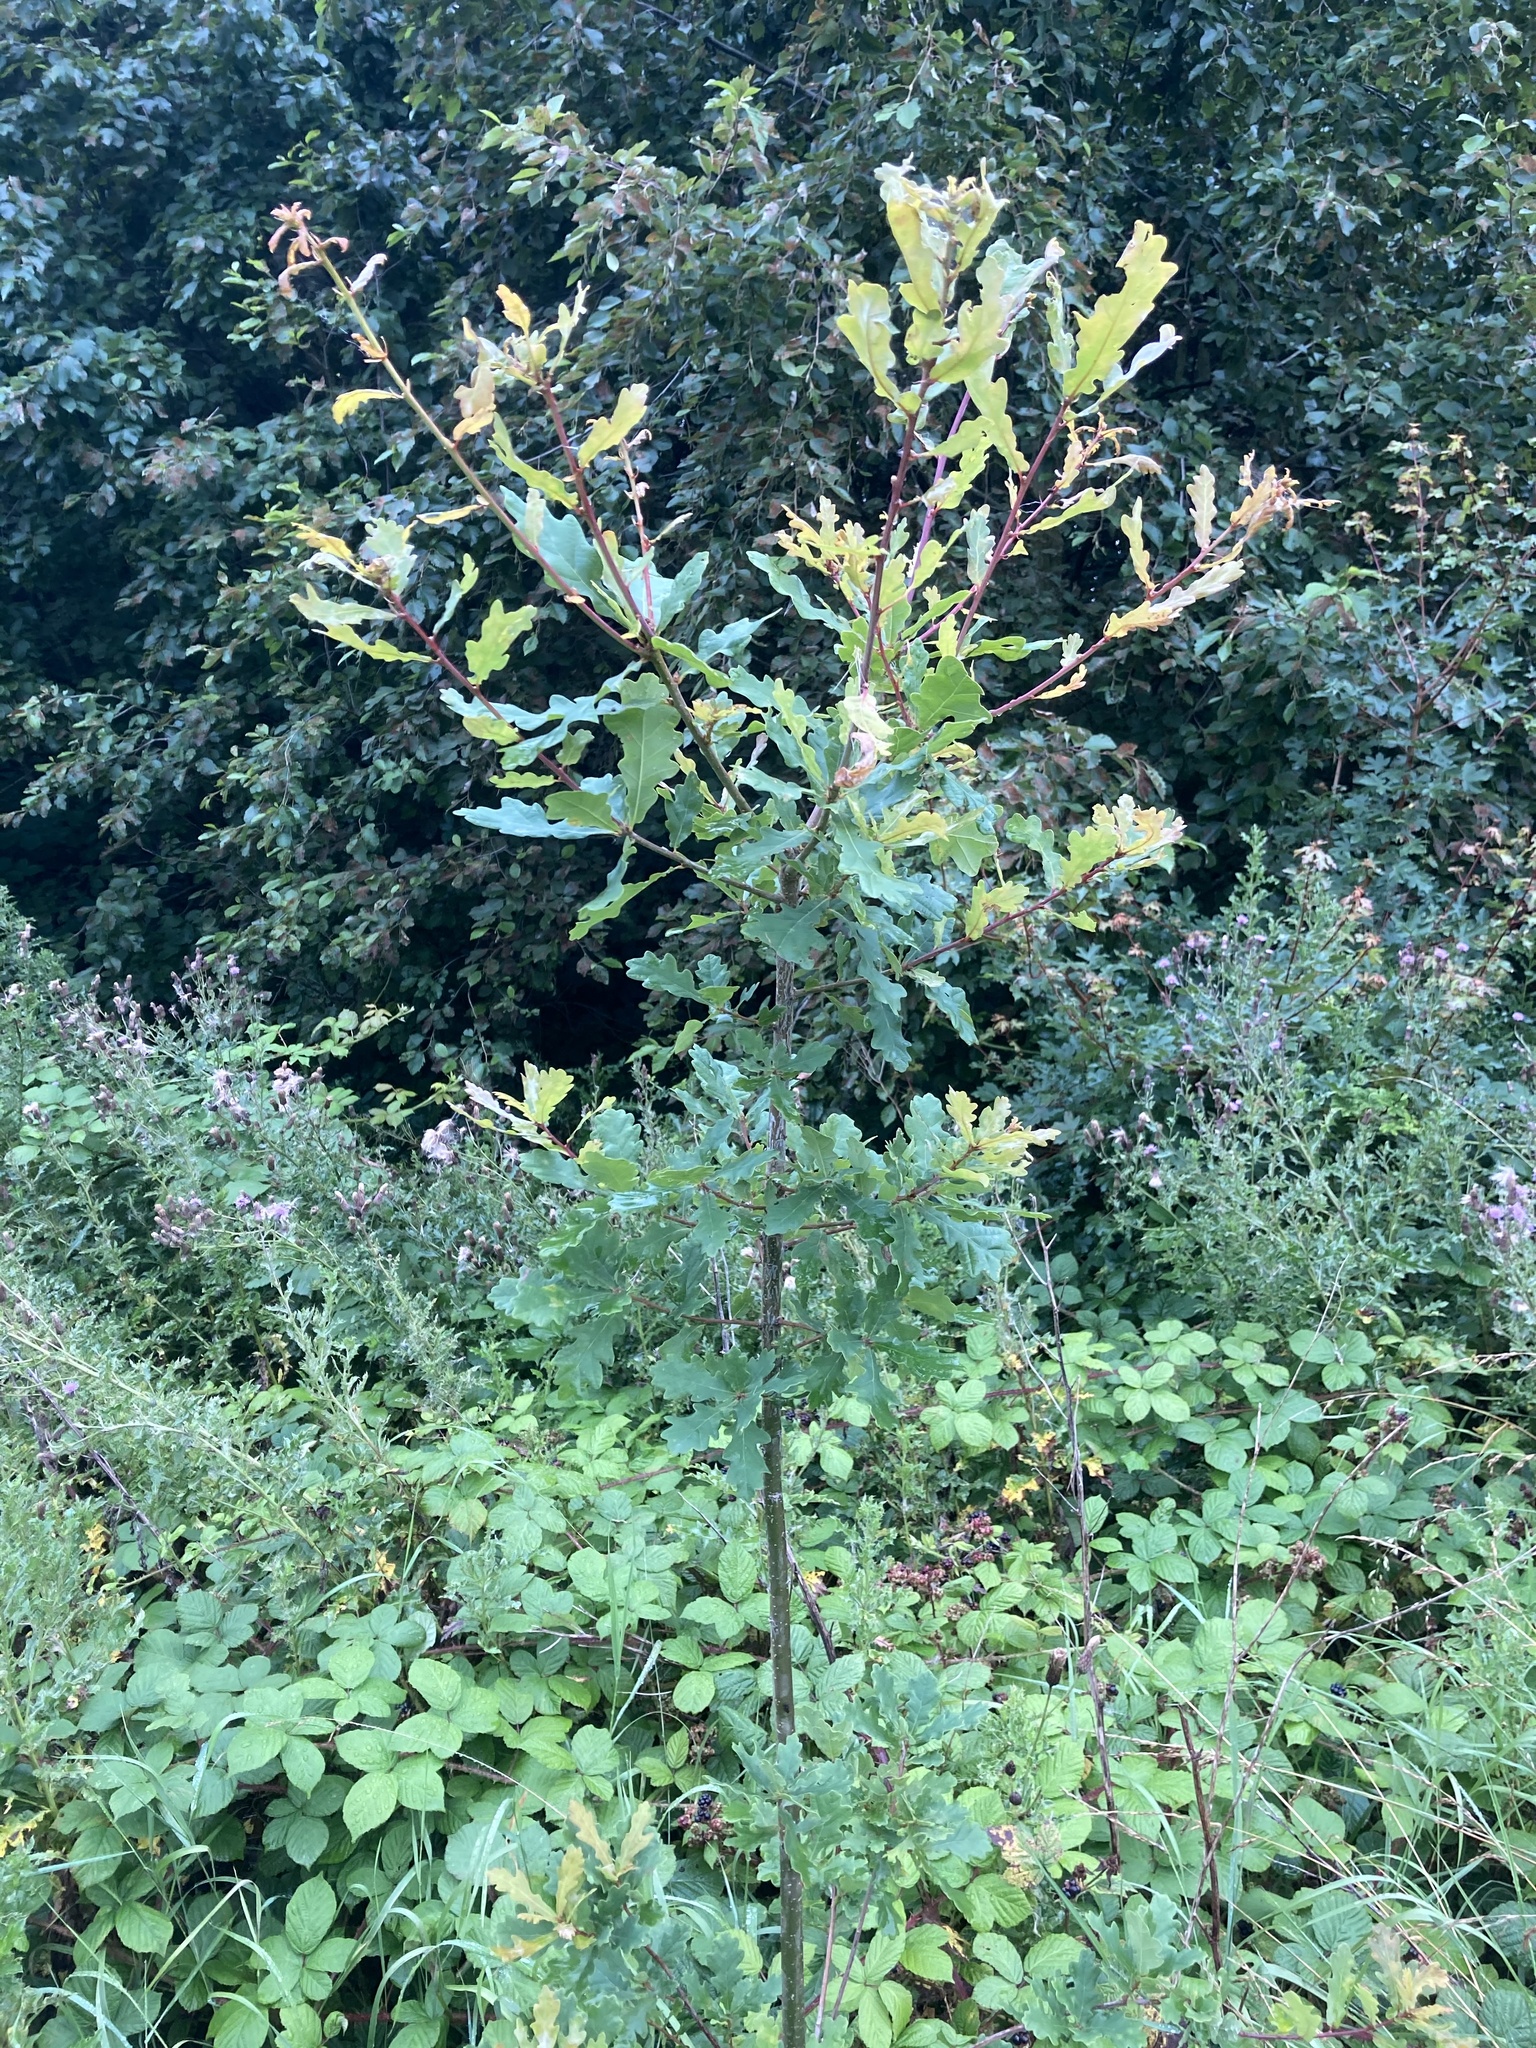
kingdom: Plantae
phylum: Tracheophyta
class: Magnoliopsida
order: Fagales
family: Fagaceae
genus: Quercus
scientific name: Quercus robur
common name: Pedunculate oak
